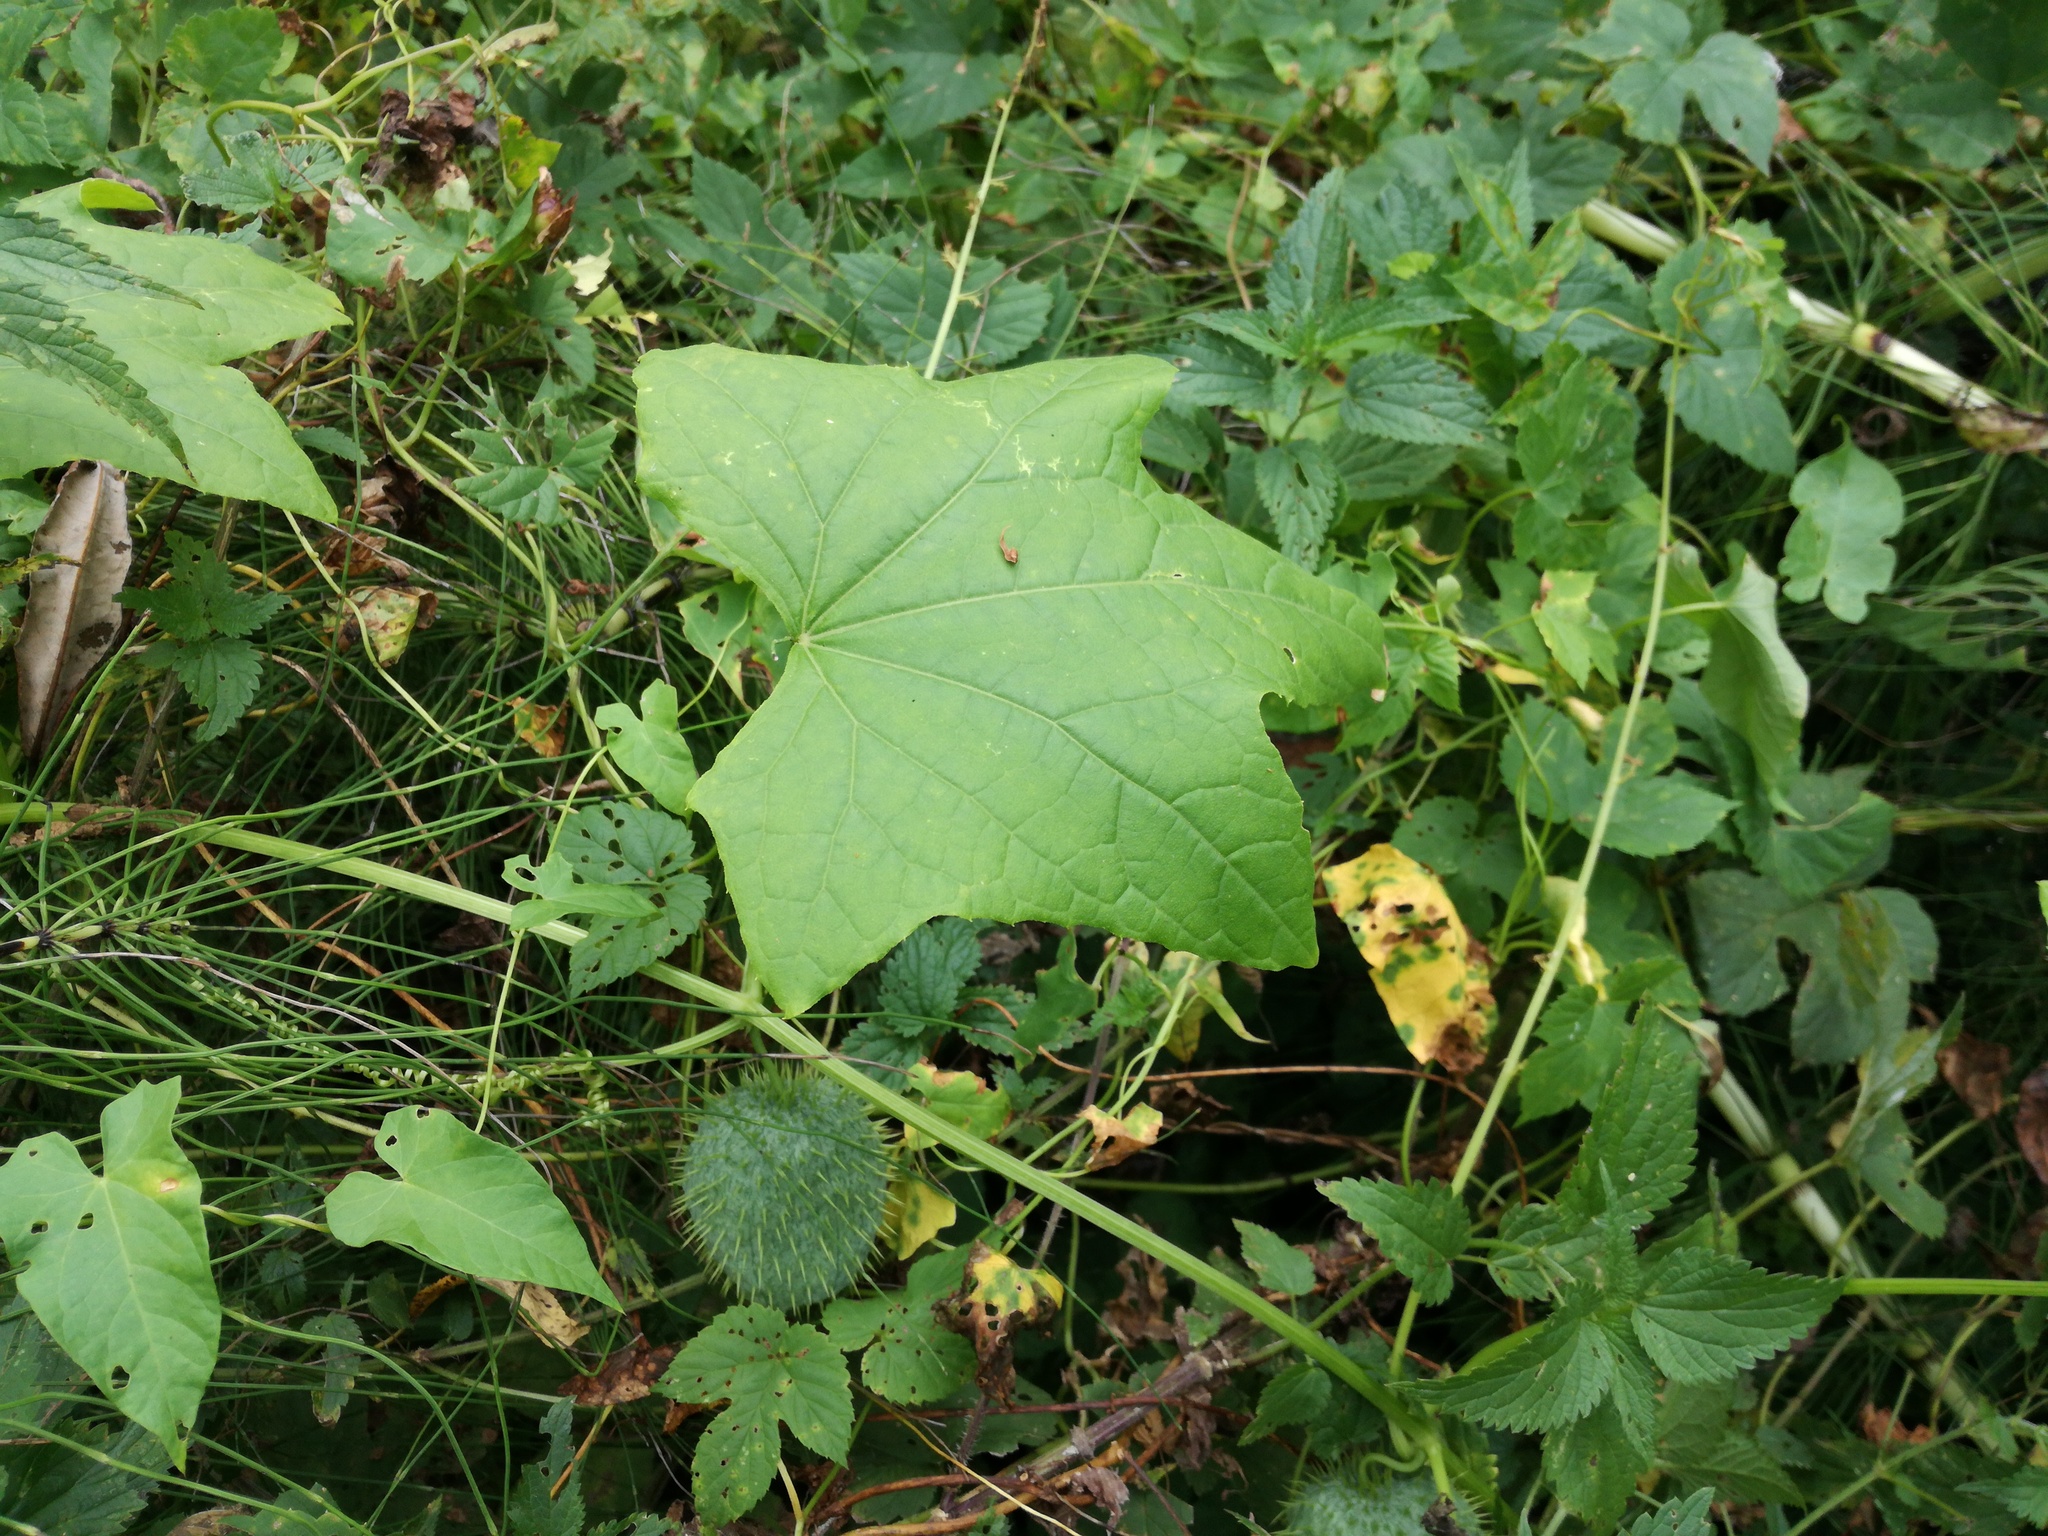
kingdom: Plantae
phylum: Tracheophyta
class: Magnoliopsida
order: Cucurbitales
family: Cucurbitaceae
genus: Echinocystis
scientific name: Echinocystis lobata
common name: Wild cucumber
